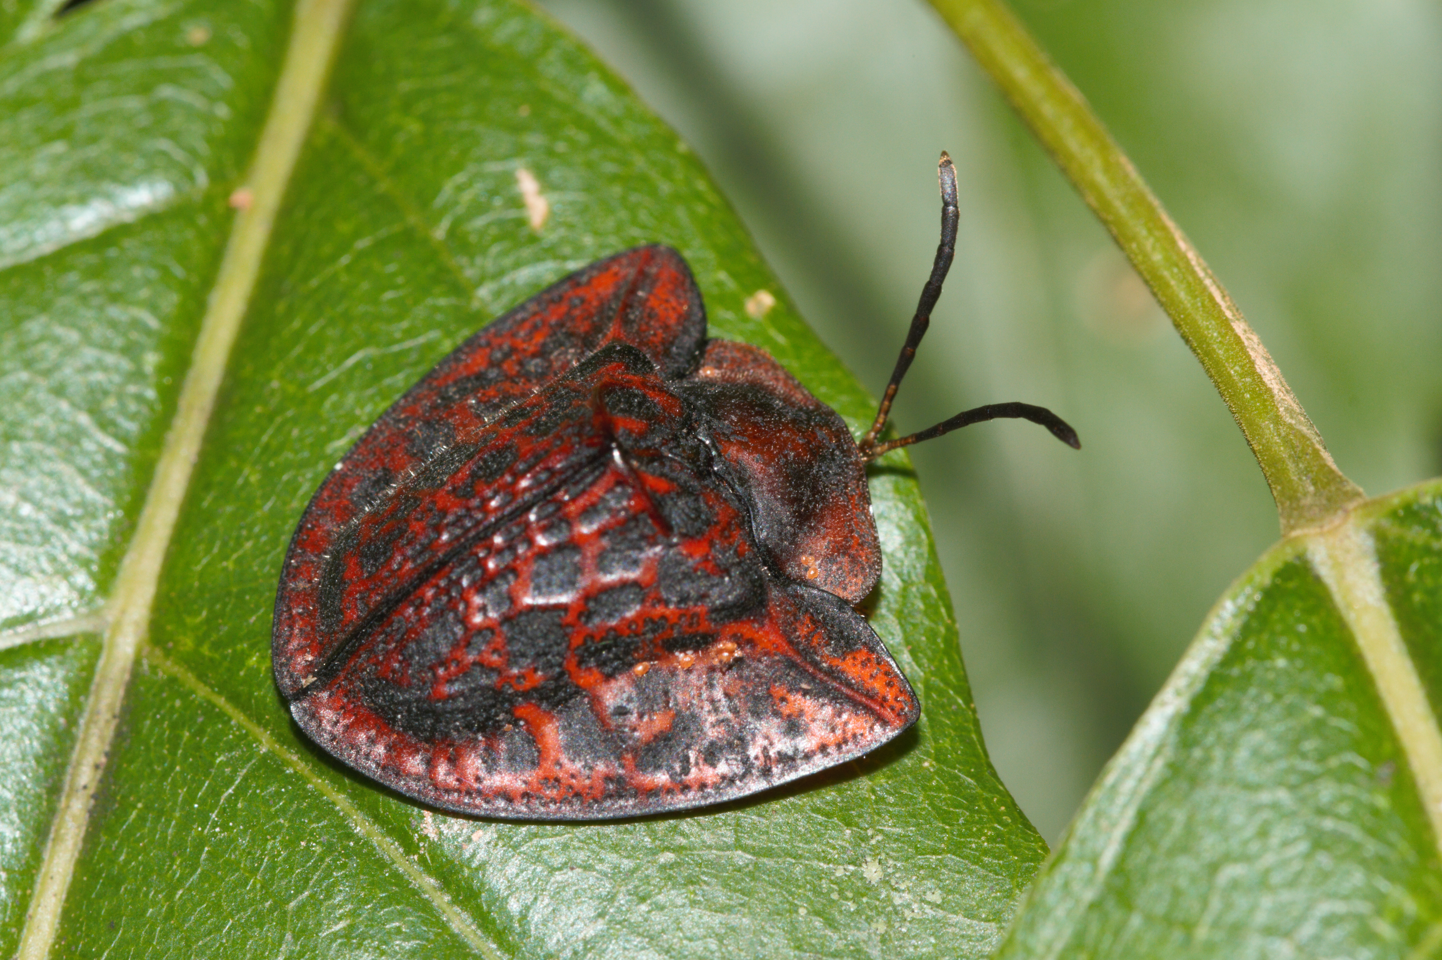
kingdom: Animalia
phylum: Arthropoda
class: Insecta
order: Coleoptera
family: Chrysomelidae
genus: Dorynota
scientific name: Dorynota truncata
